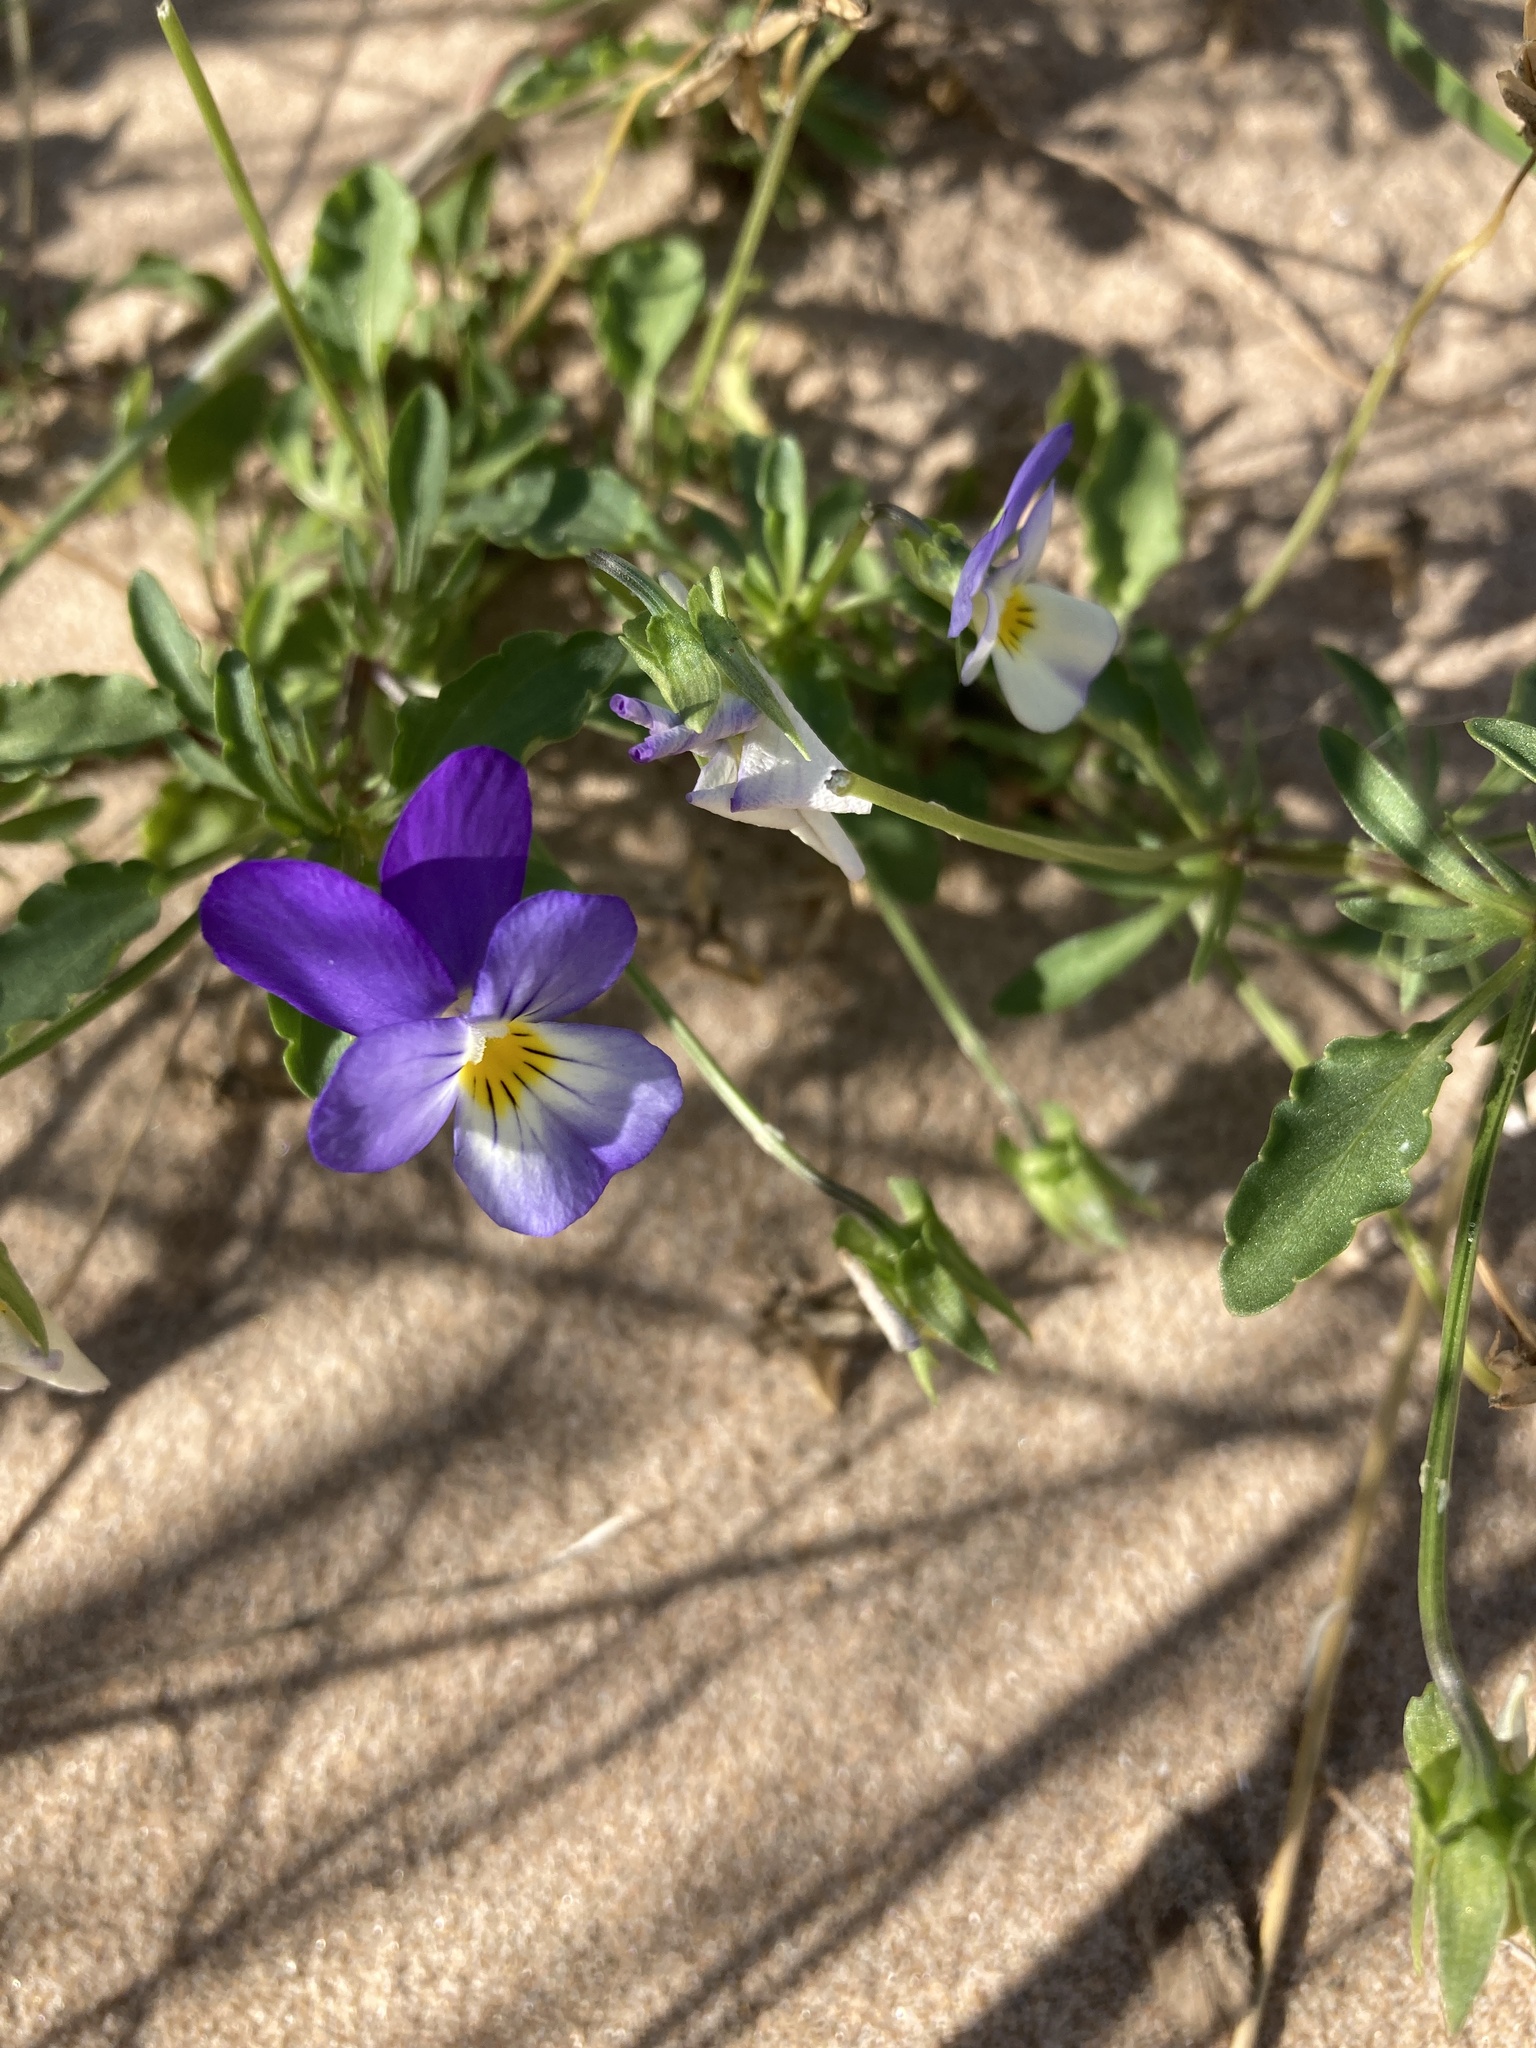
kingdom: Plantae
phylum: Tracheophyta
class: Magnoliopsida
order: Malpighiales
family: Violaceae
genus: Viola
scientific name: Viola tricolor
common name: Pansy
